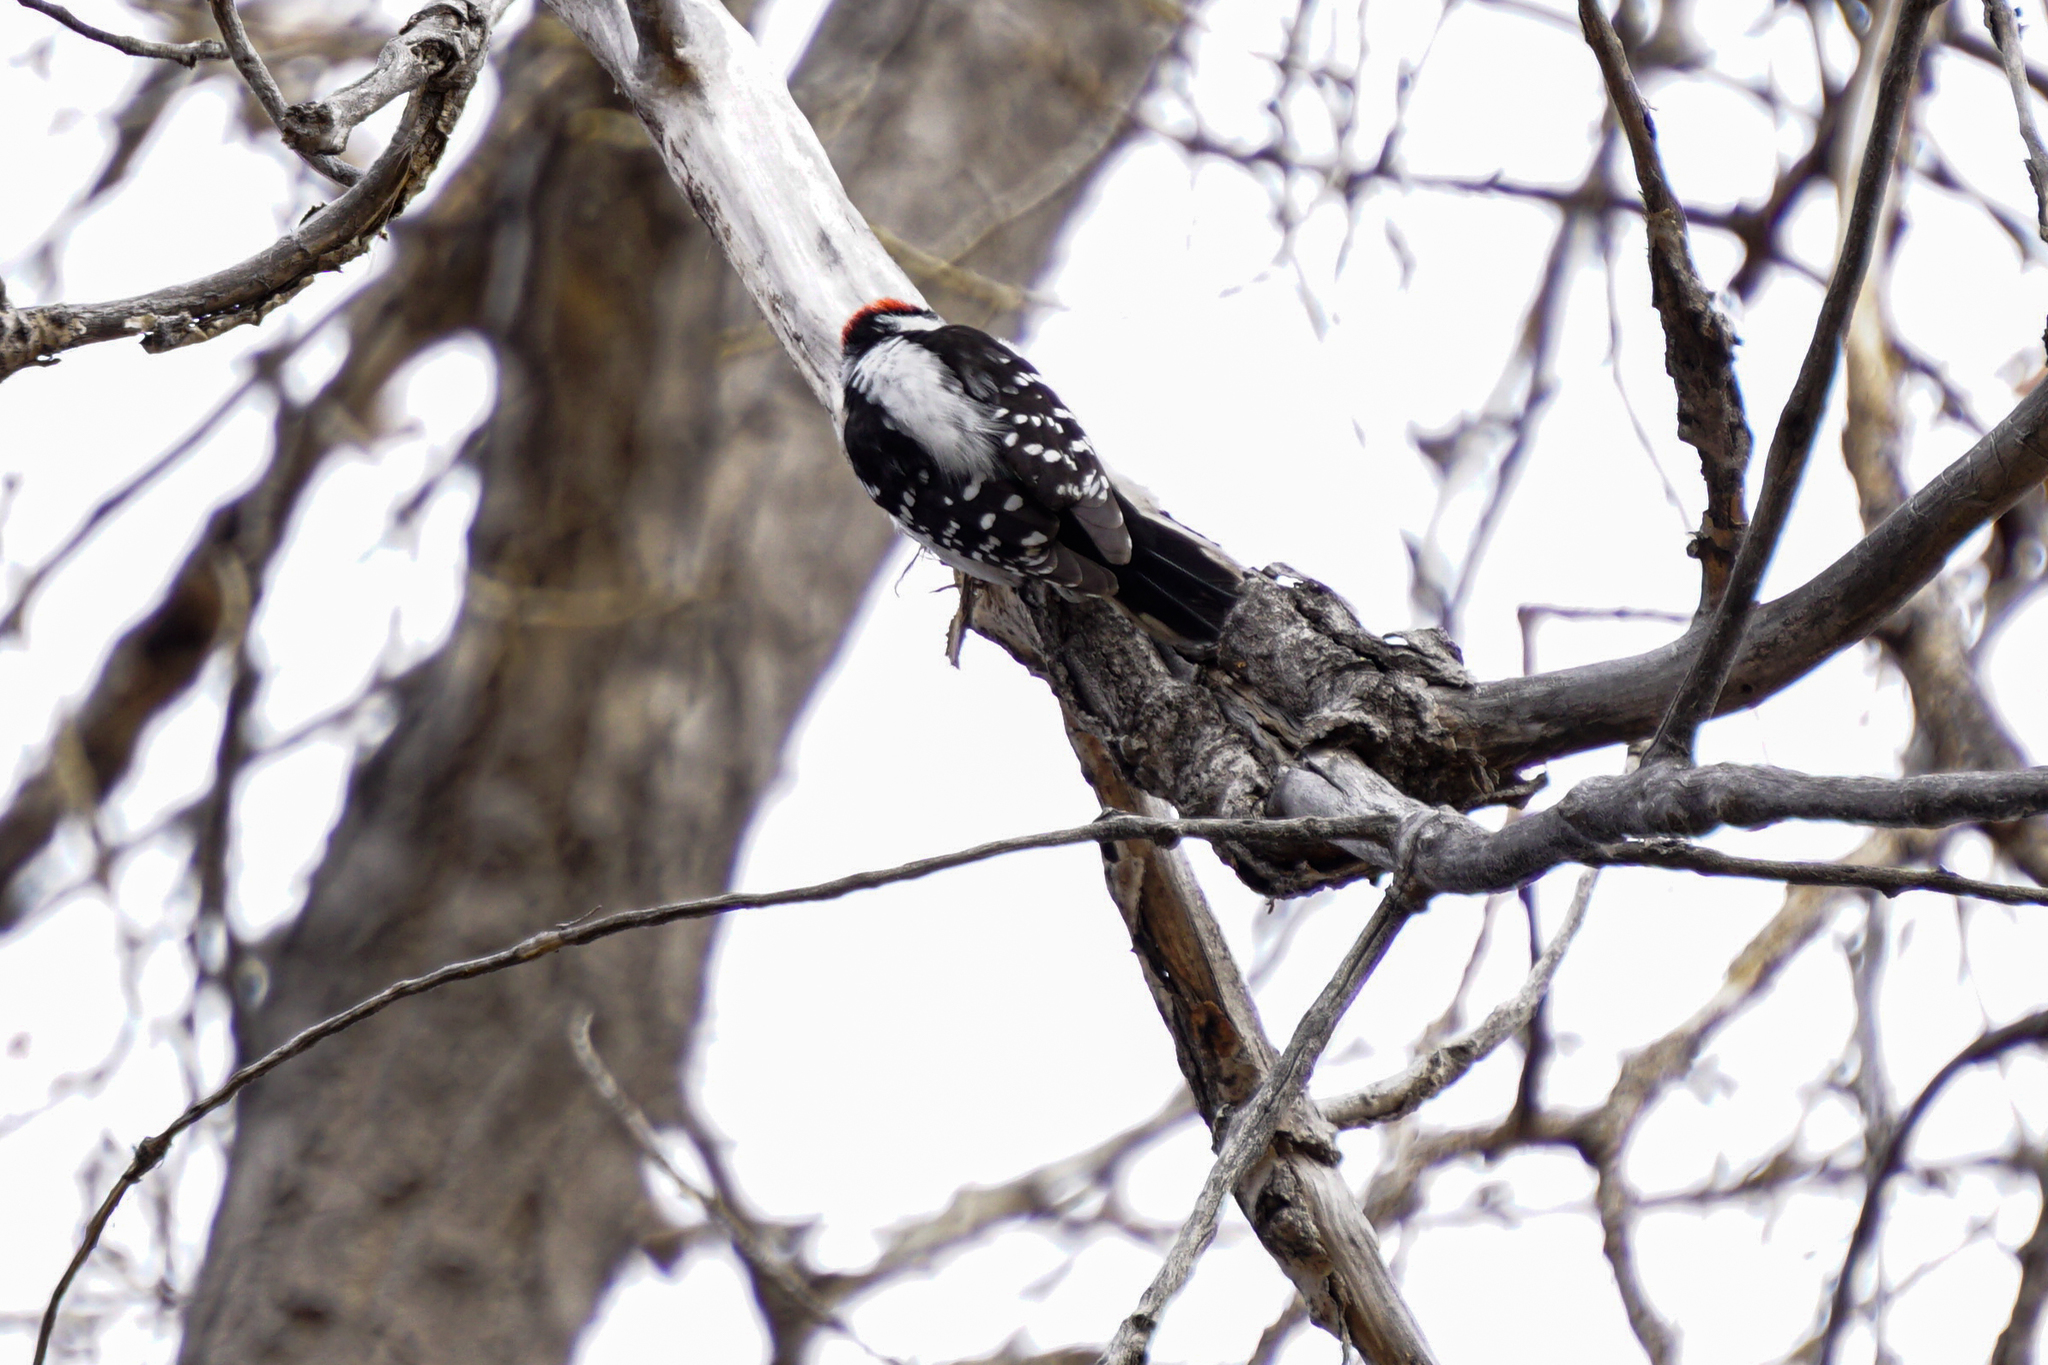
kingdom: Animalia
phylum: Chordata
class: Aves
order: Piciformes
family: Picidae
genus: Dryobates
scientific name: Dryobates pubescens
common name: Downy woodpecker
